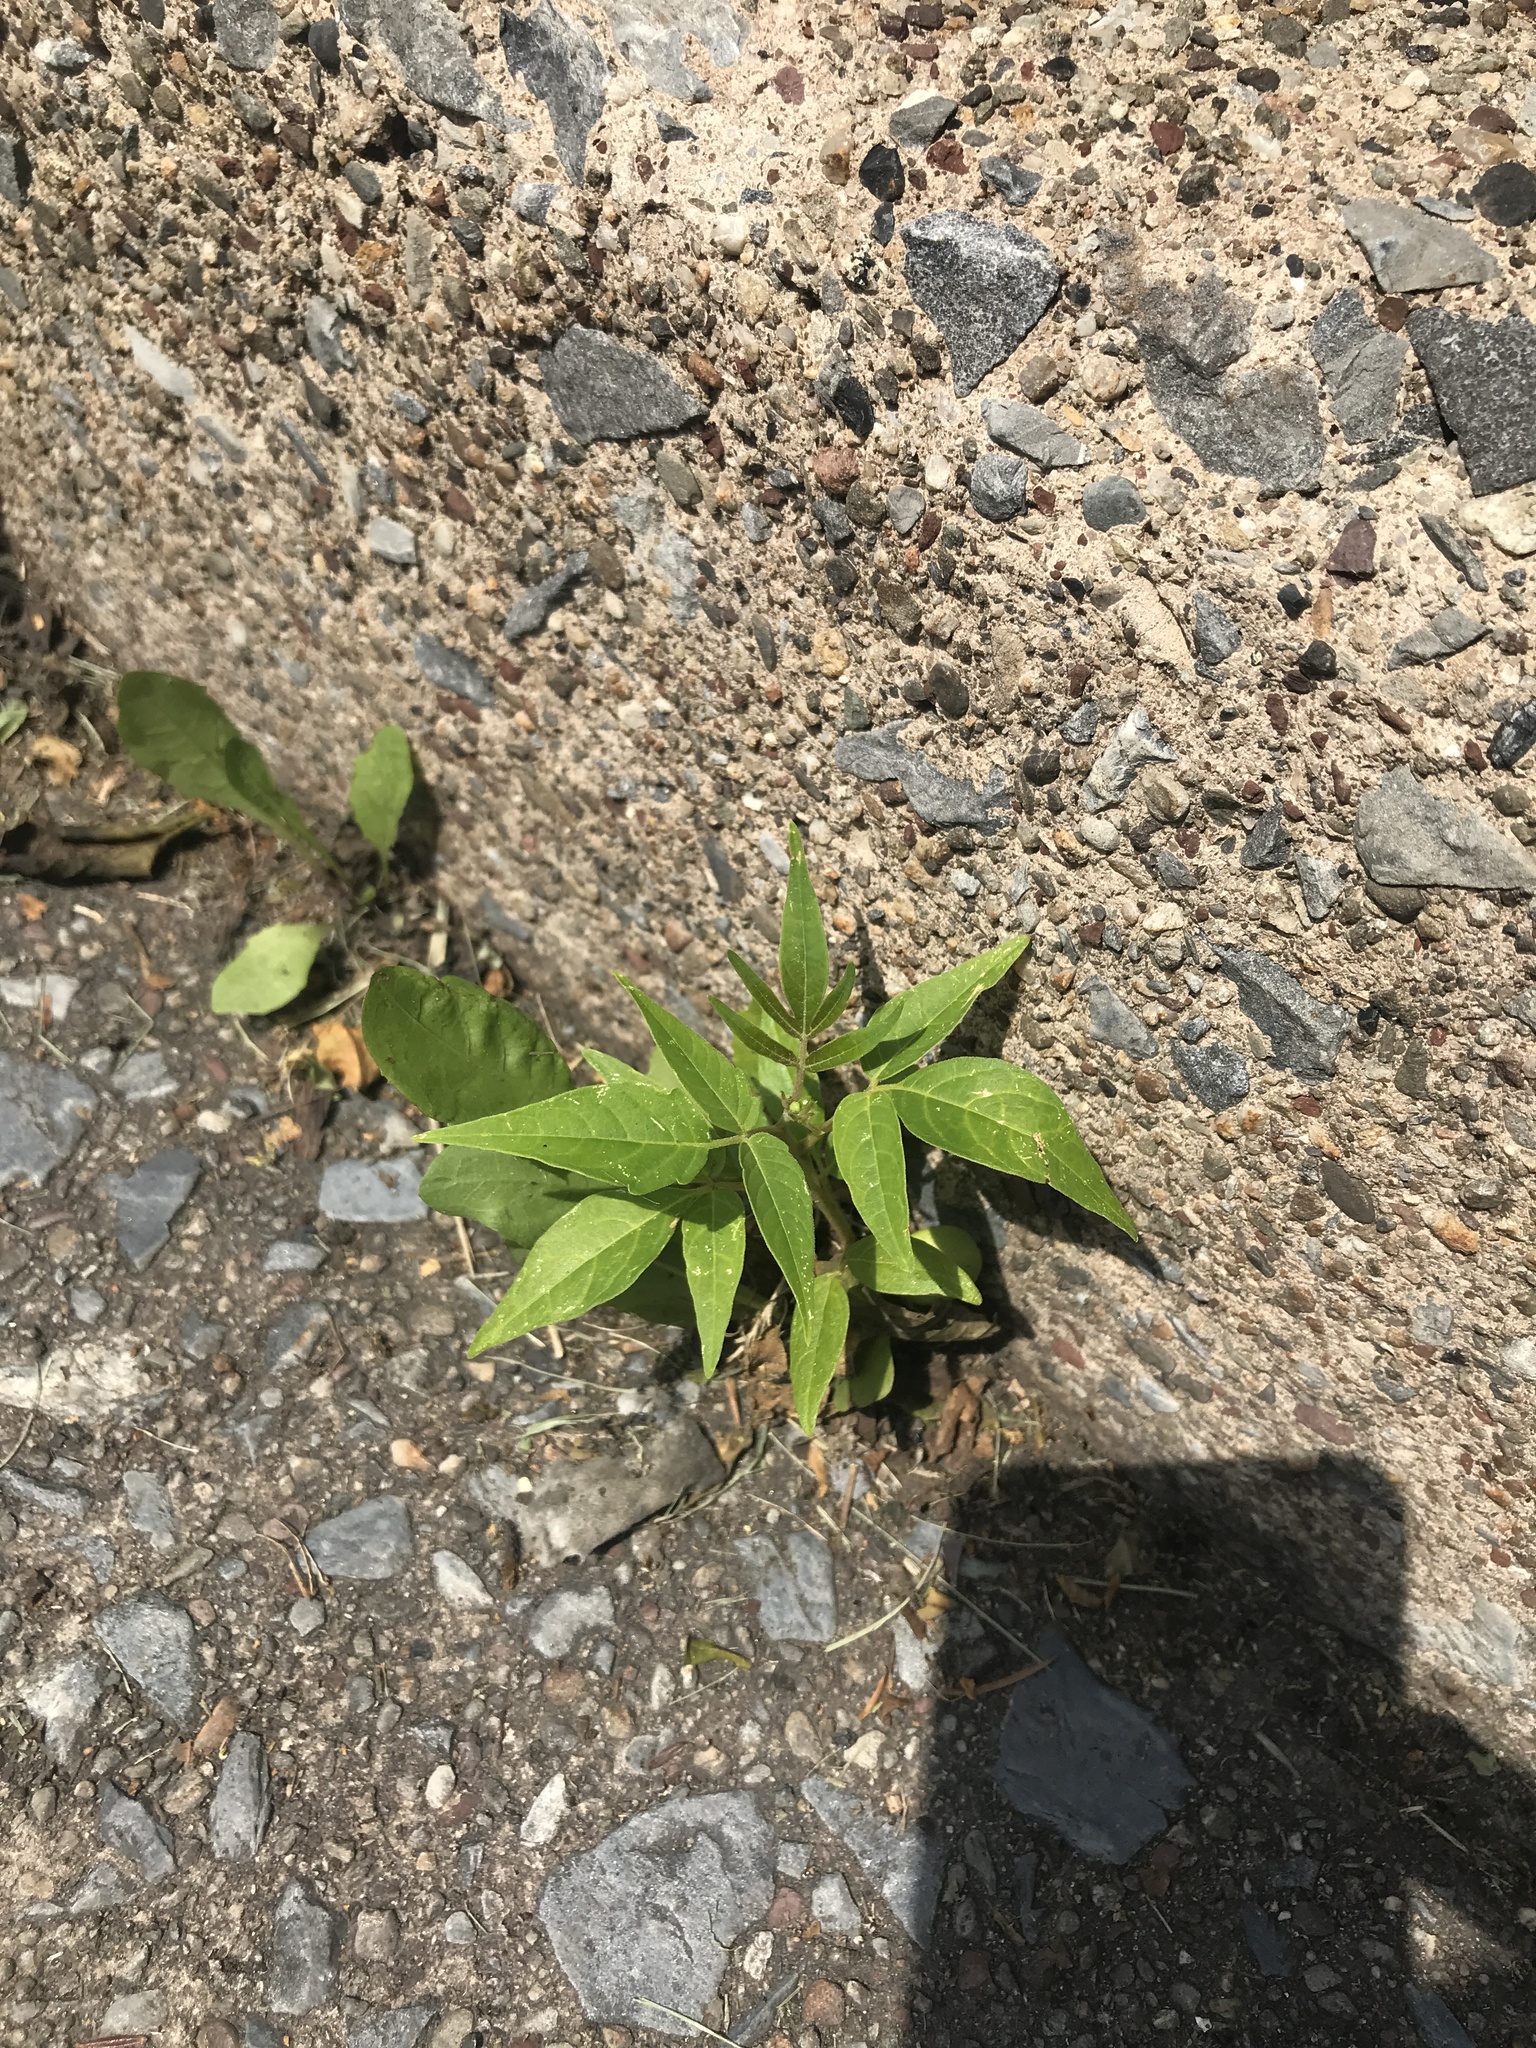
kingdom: Plantae
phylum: Tracheophyta
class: Magnoliopsida
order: Sapindales
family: Simaroubaceae
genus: Ailanthus
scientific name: Ailanthus altissima
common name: Tree-of-heaven
